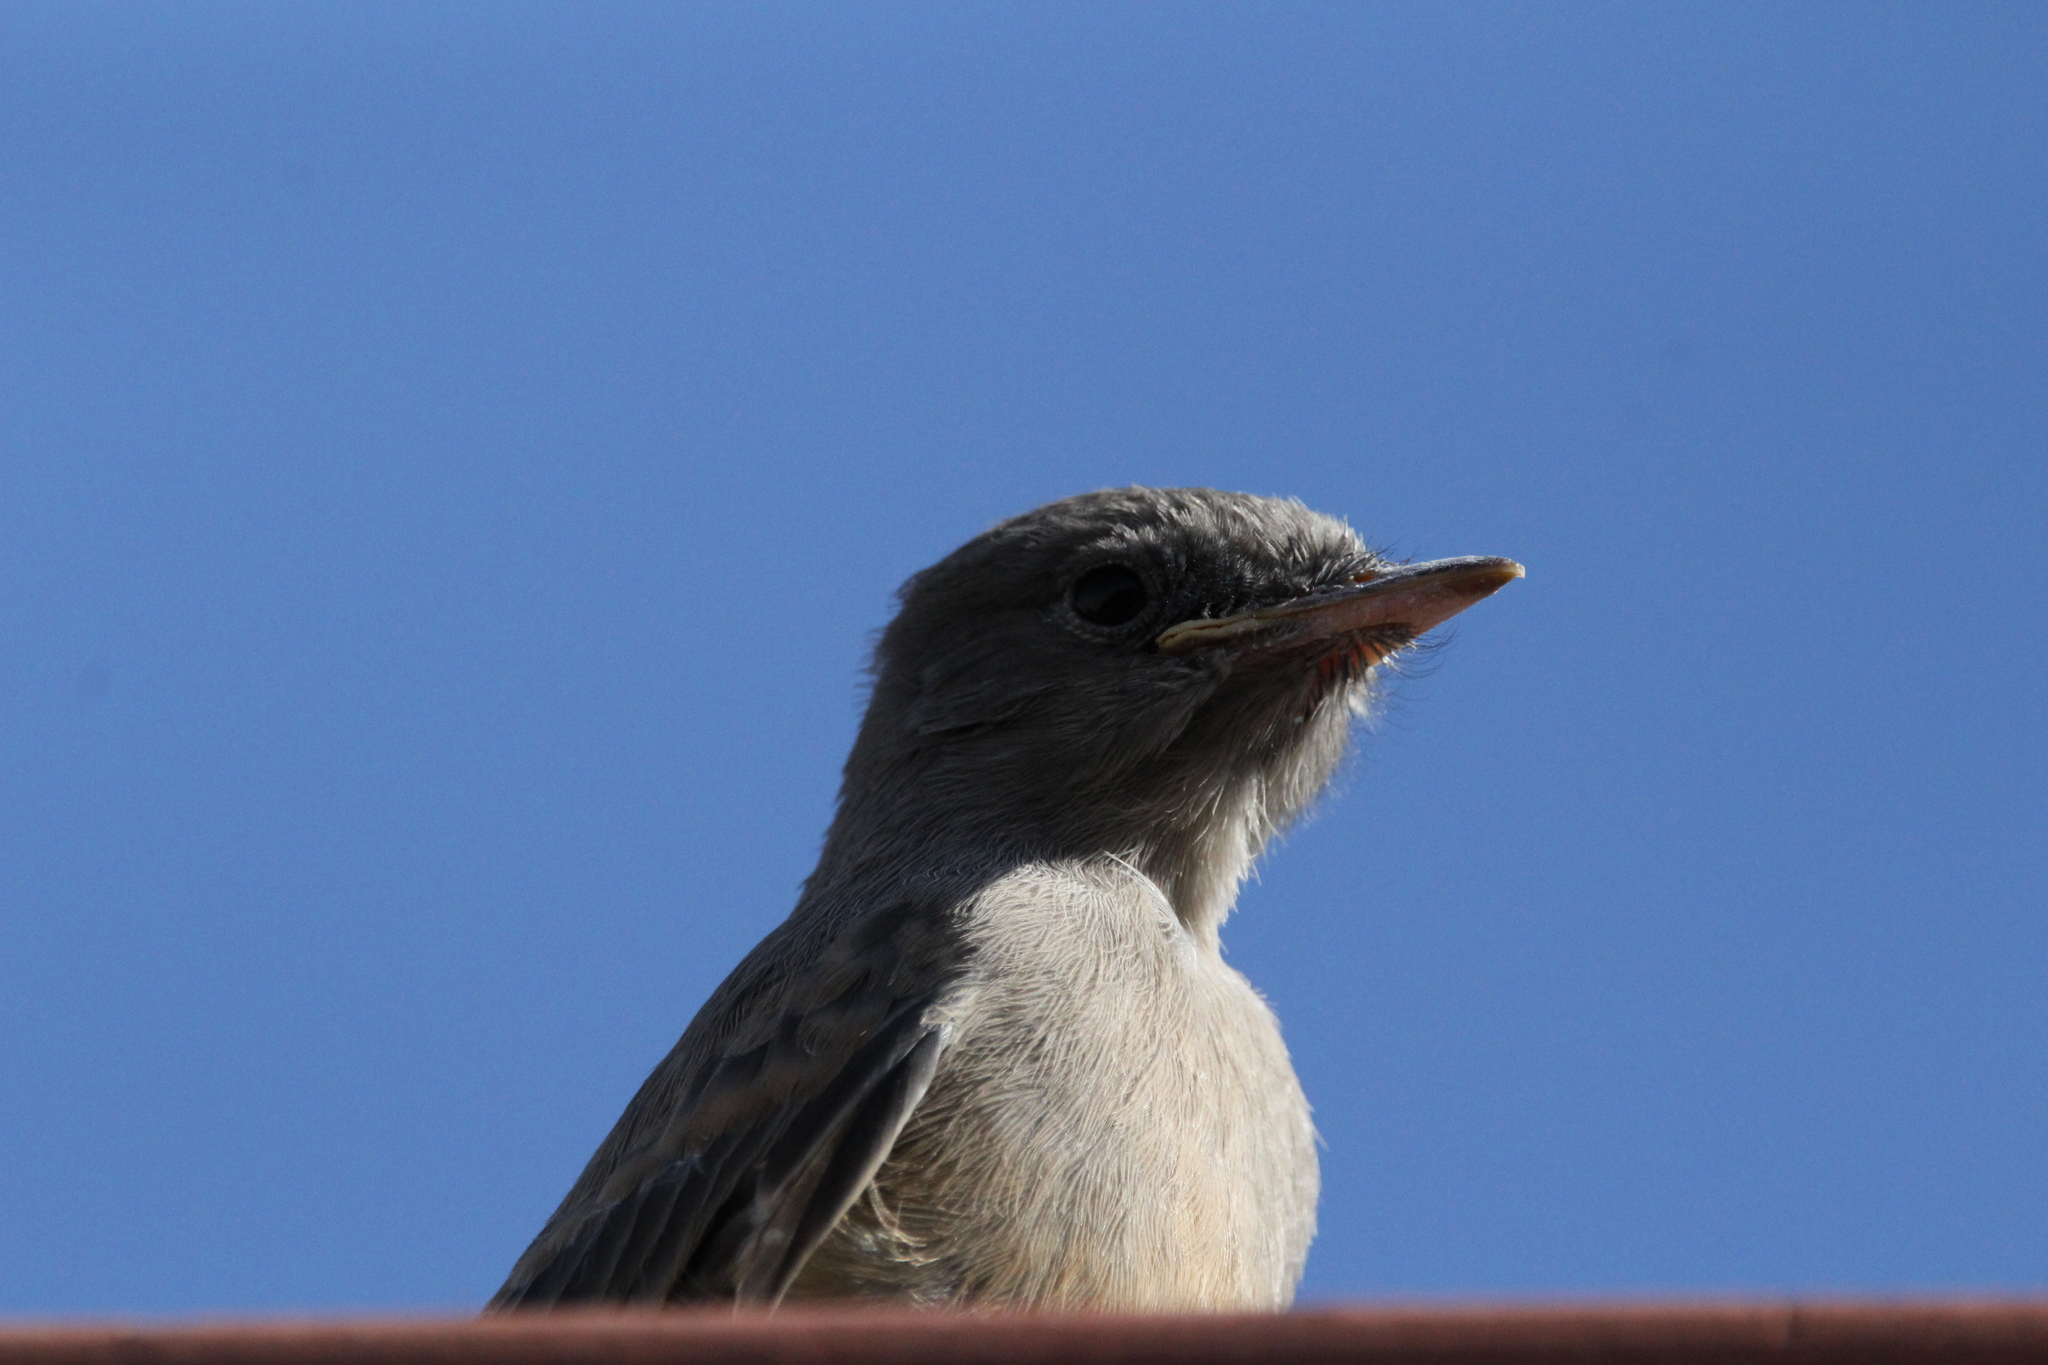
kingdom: Animalia
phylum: Chordata
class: Aves
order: Passeriformes
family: Tyrannidae
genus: Sayornis
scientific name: Sayornis saya
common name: Say's phoebe
